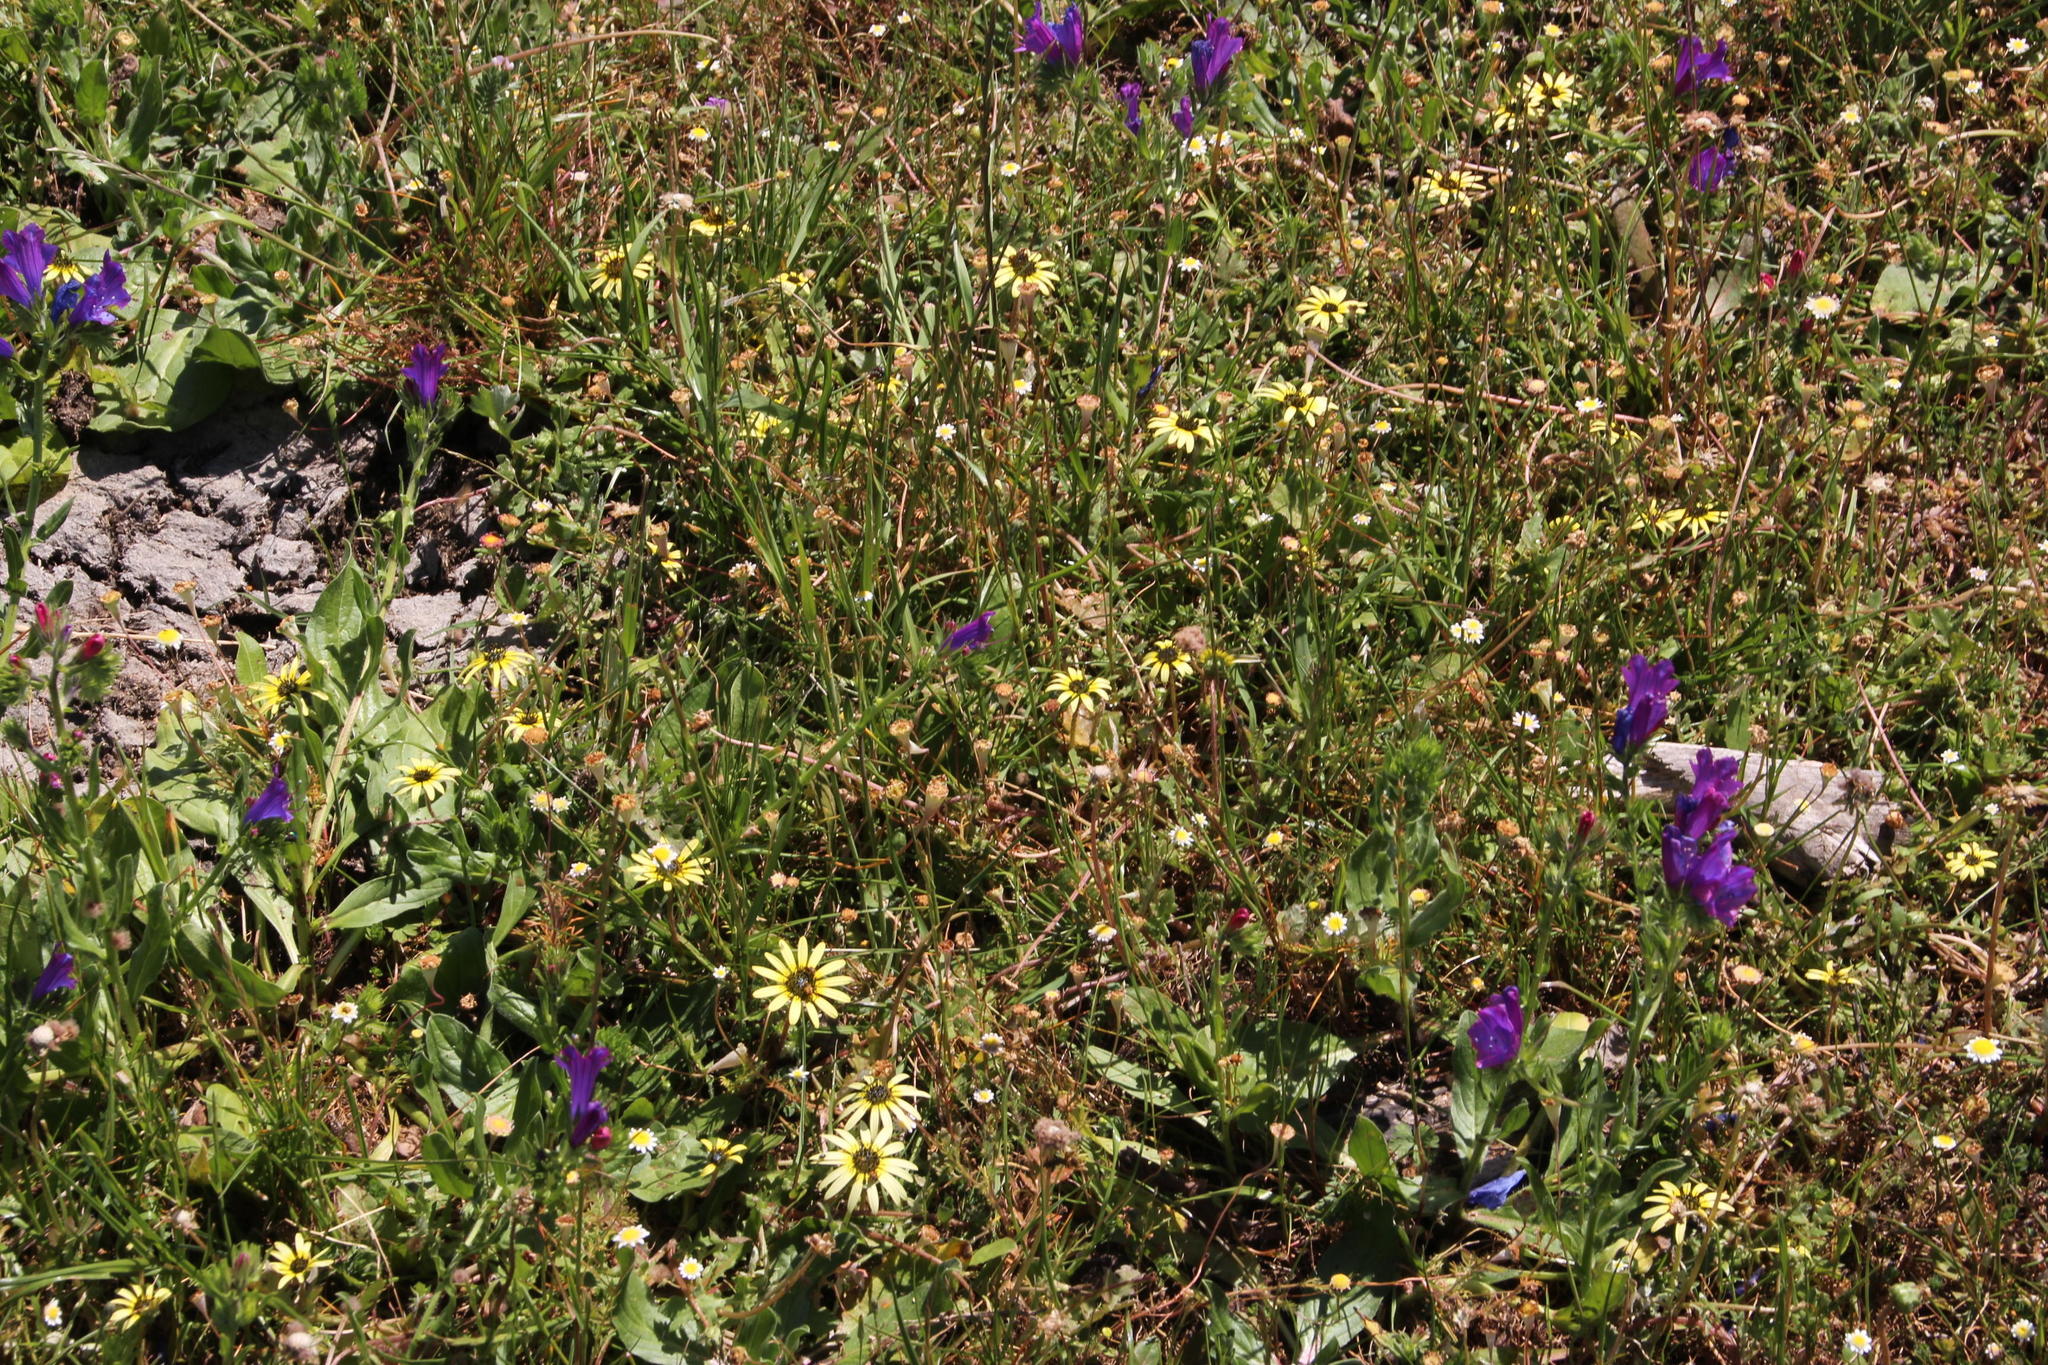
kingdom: Plantae
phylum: Tracheophyta
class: Magnoliopsida
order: Asterales
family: Asteraceae
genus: Arctotheca
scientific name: Arctotheca calendula
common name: Capeweed
